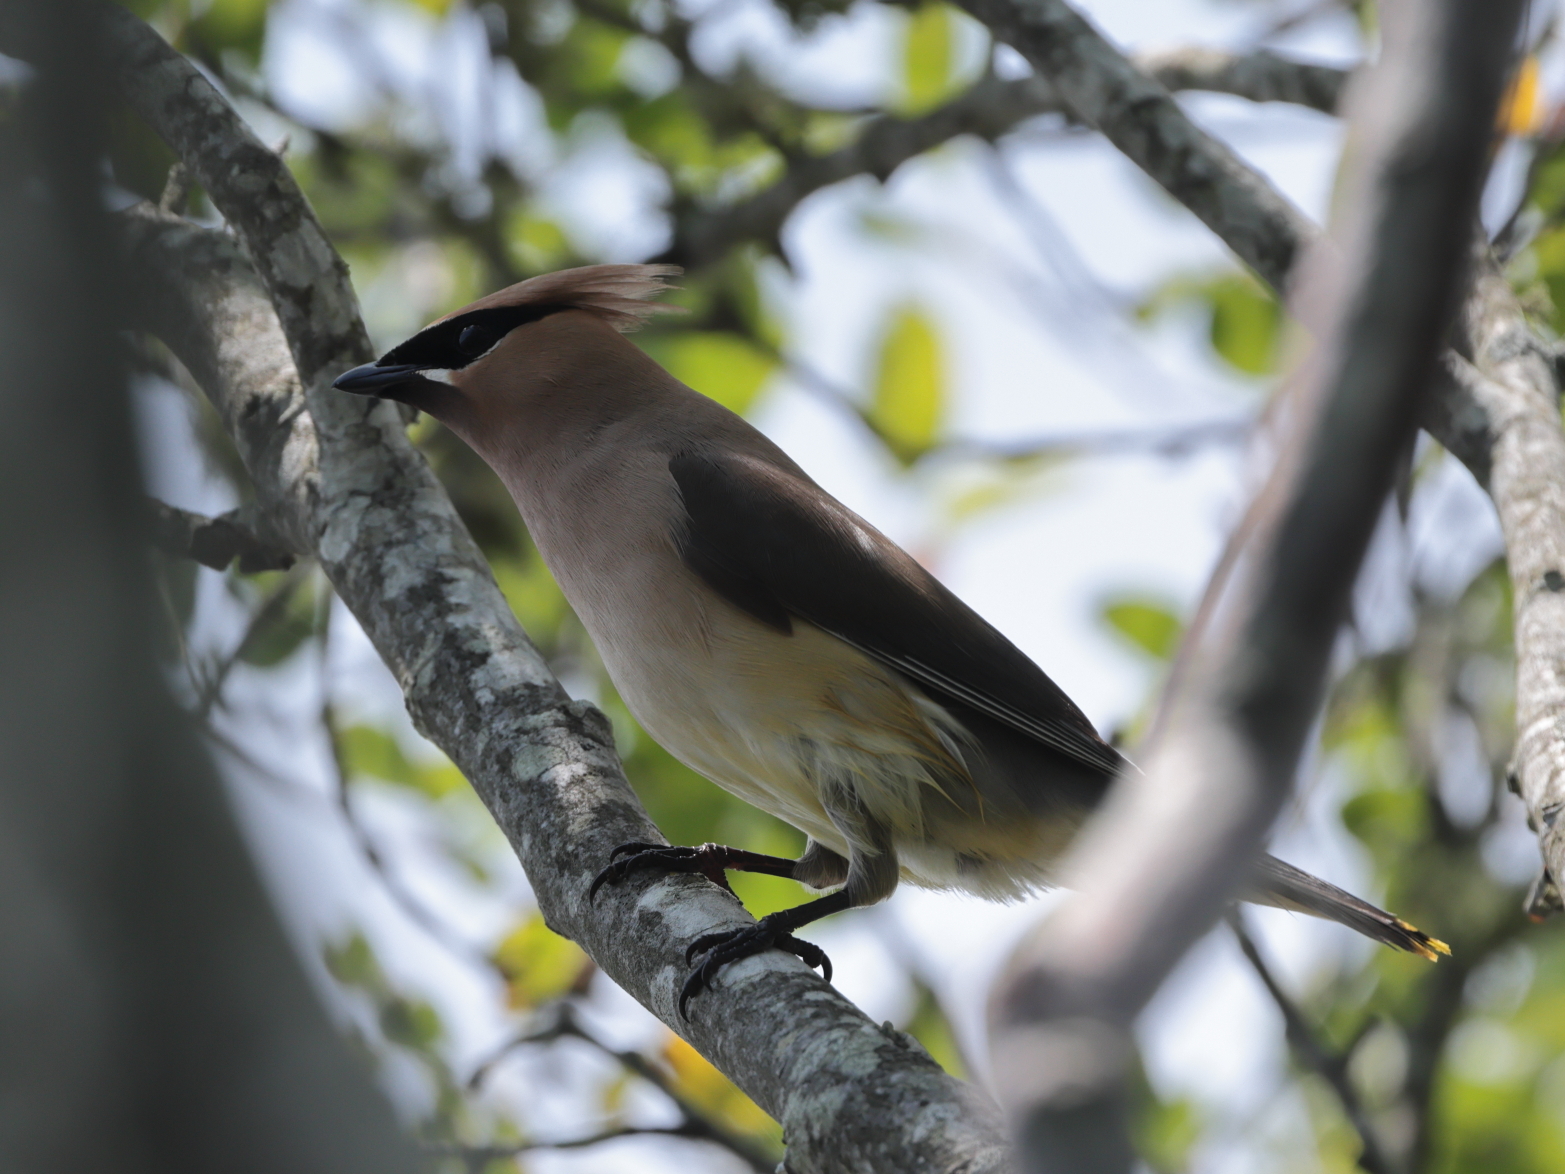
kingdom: Animalia
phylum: Chordata
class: Aves
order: Passeriformes
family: Bombycillidae
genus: Bombycilla
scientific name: Bombycilla cedrorum
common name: Cedar waxwing
